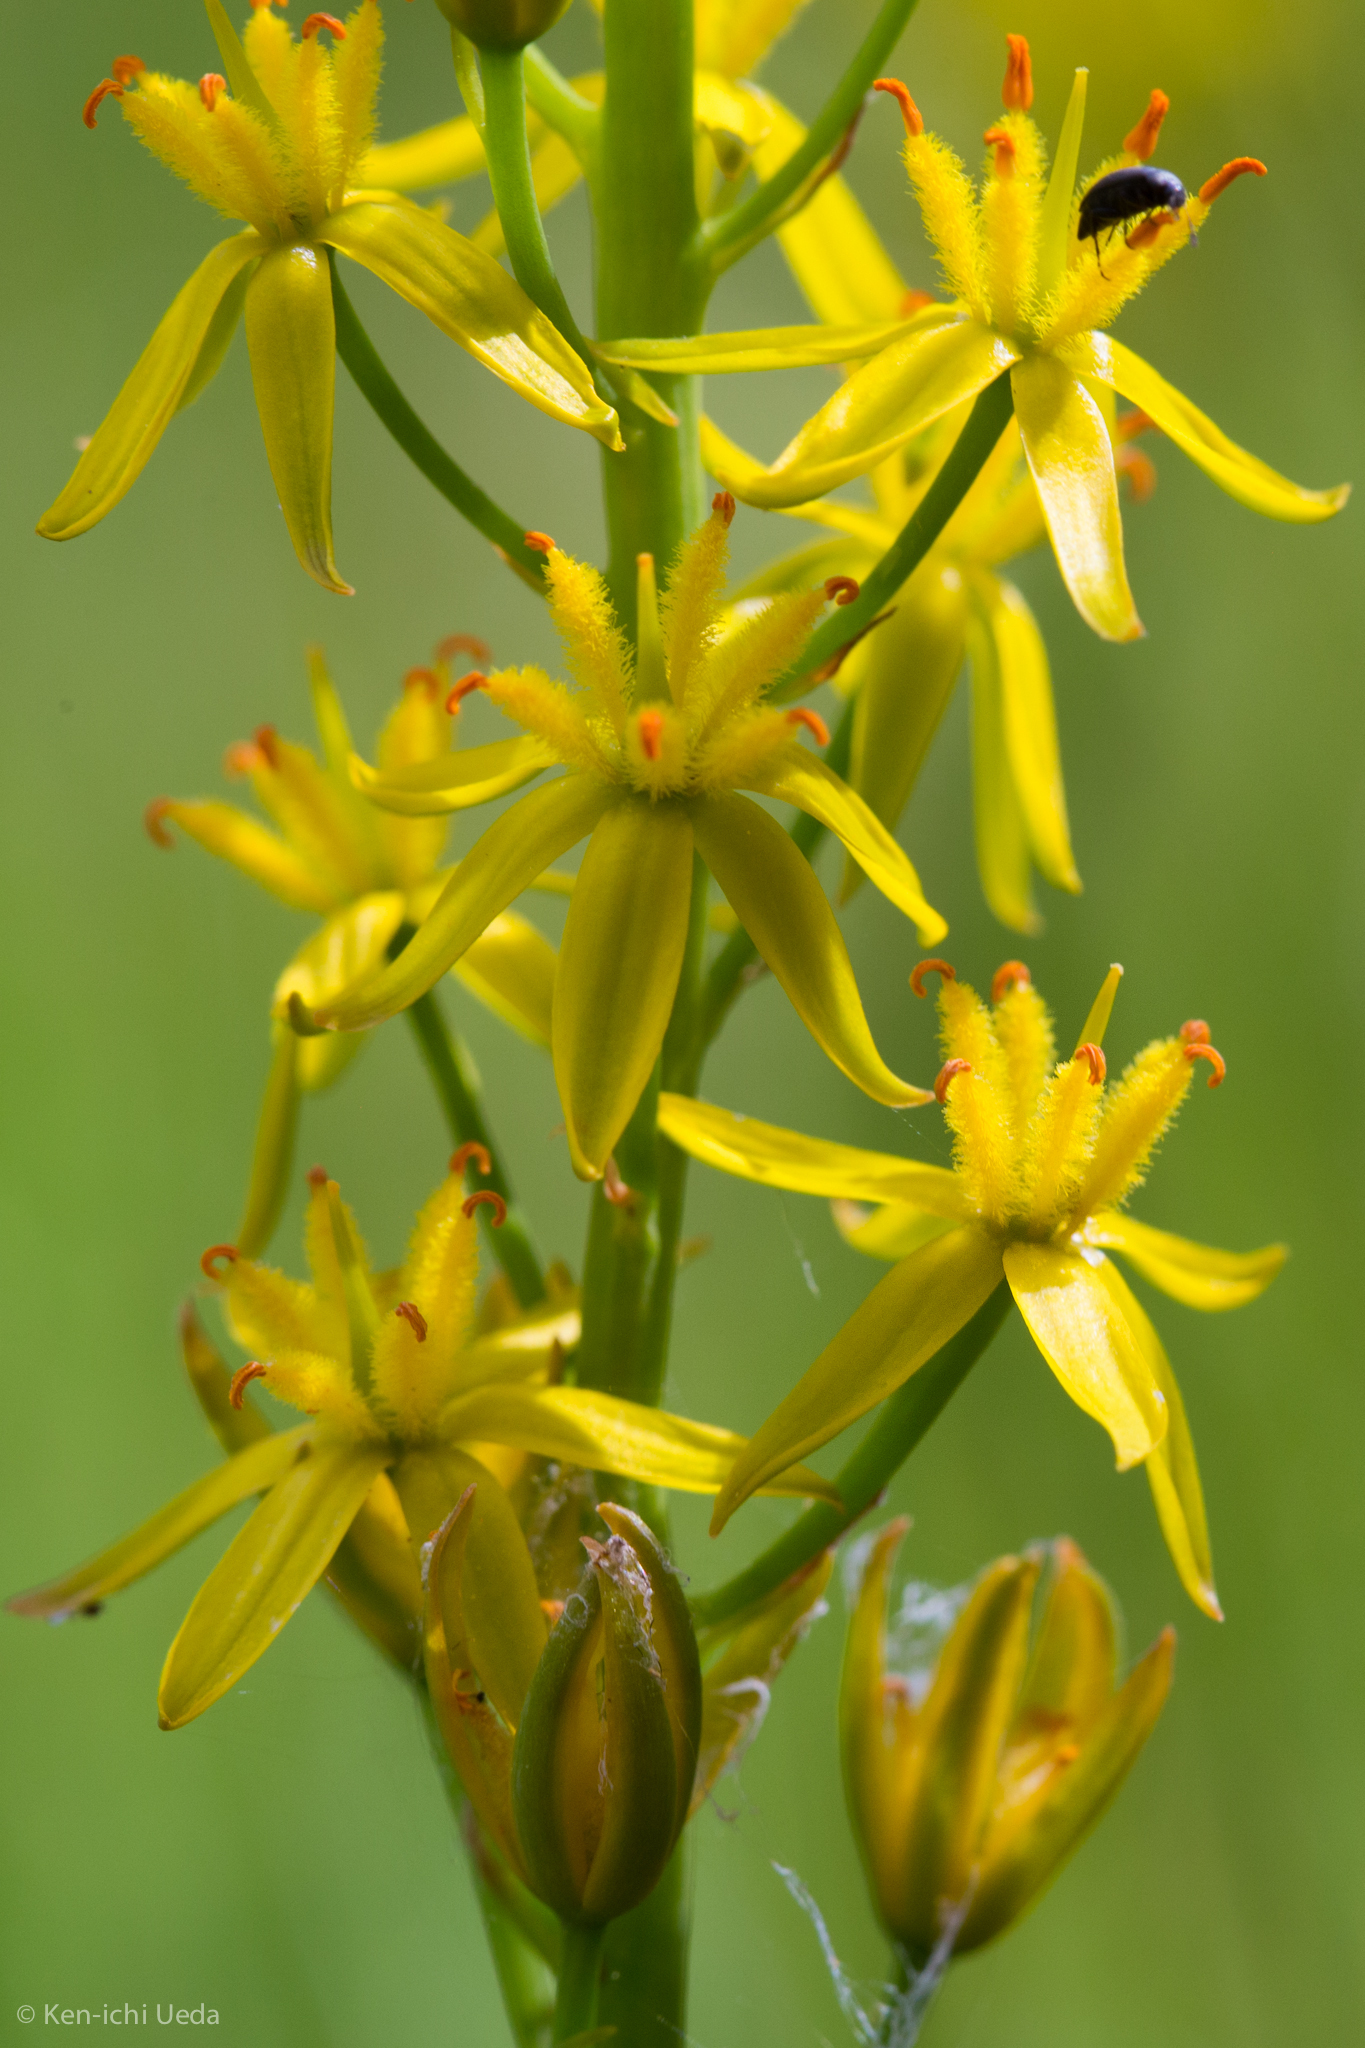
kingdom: Plantae
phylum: Tracheophyta
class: Liliopsida
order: Dioscoreales
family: Nartheciaceae
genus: Narthecium
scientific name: Narthecium californicum
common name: California bog-asphodel
